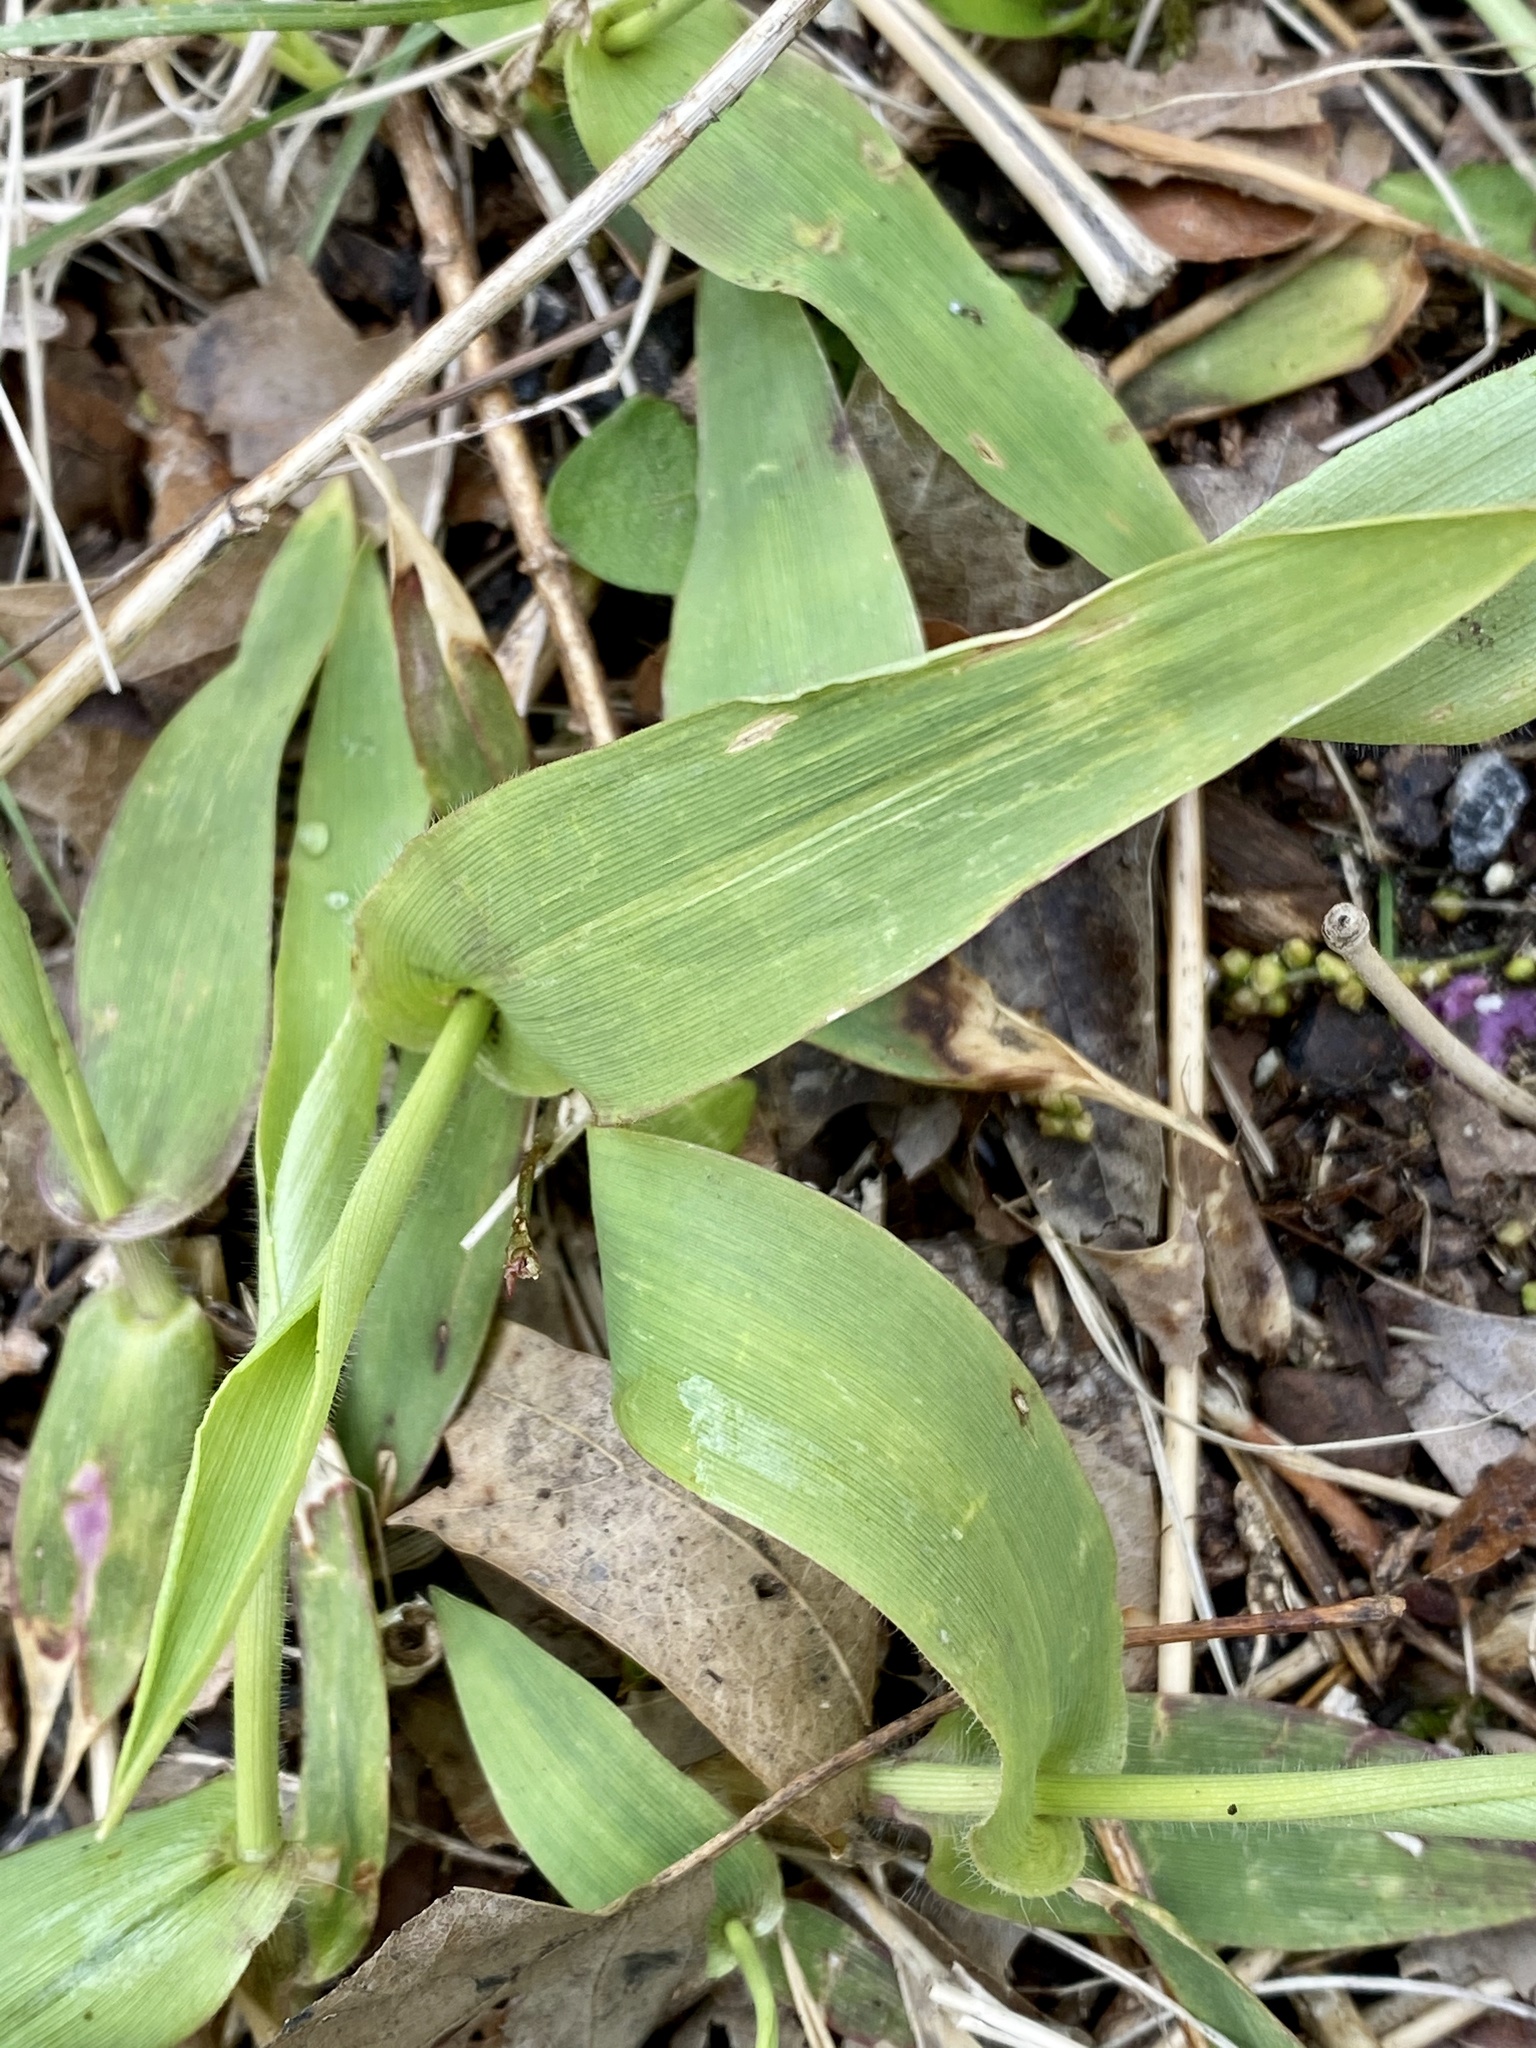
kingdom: Plantae
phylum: Tracheophyta
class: Liliopsida
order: Poales
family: Poaceae
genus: Dichanthelium
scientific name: Dichanthelium clandestinum
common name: Deer-tongue grass
